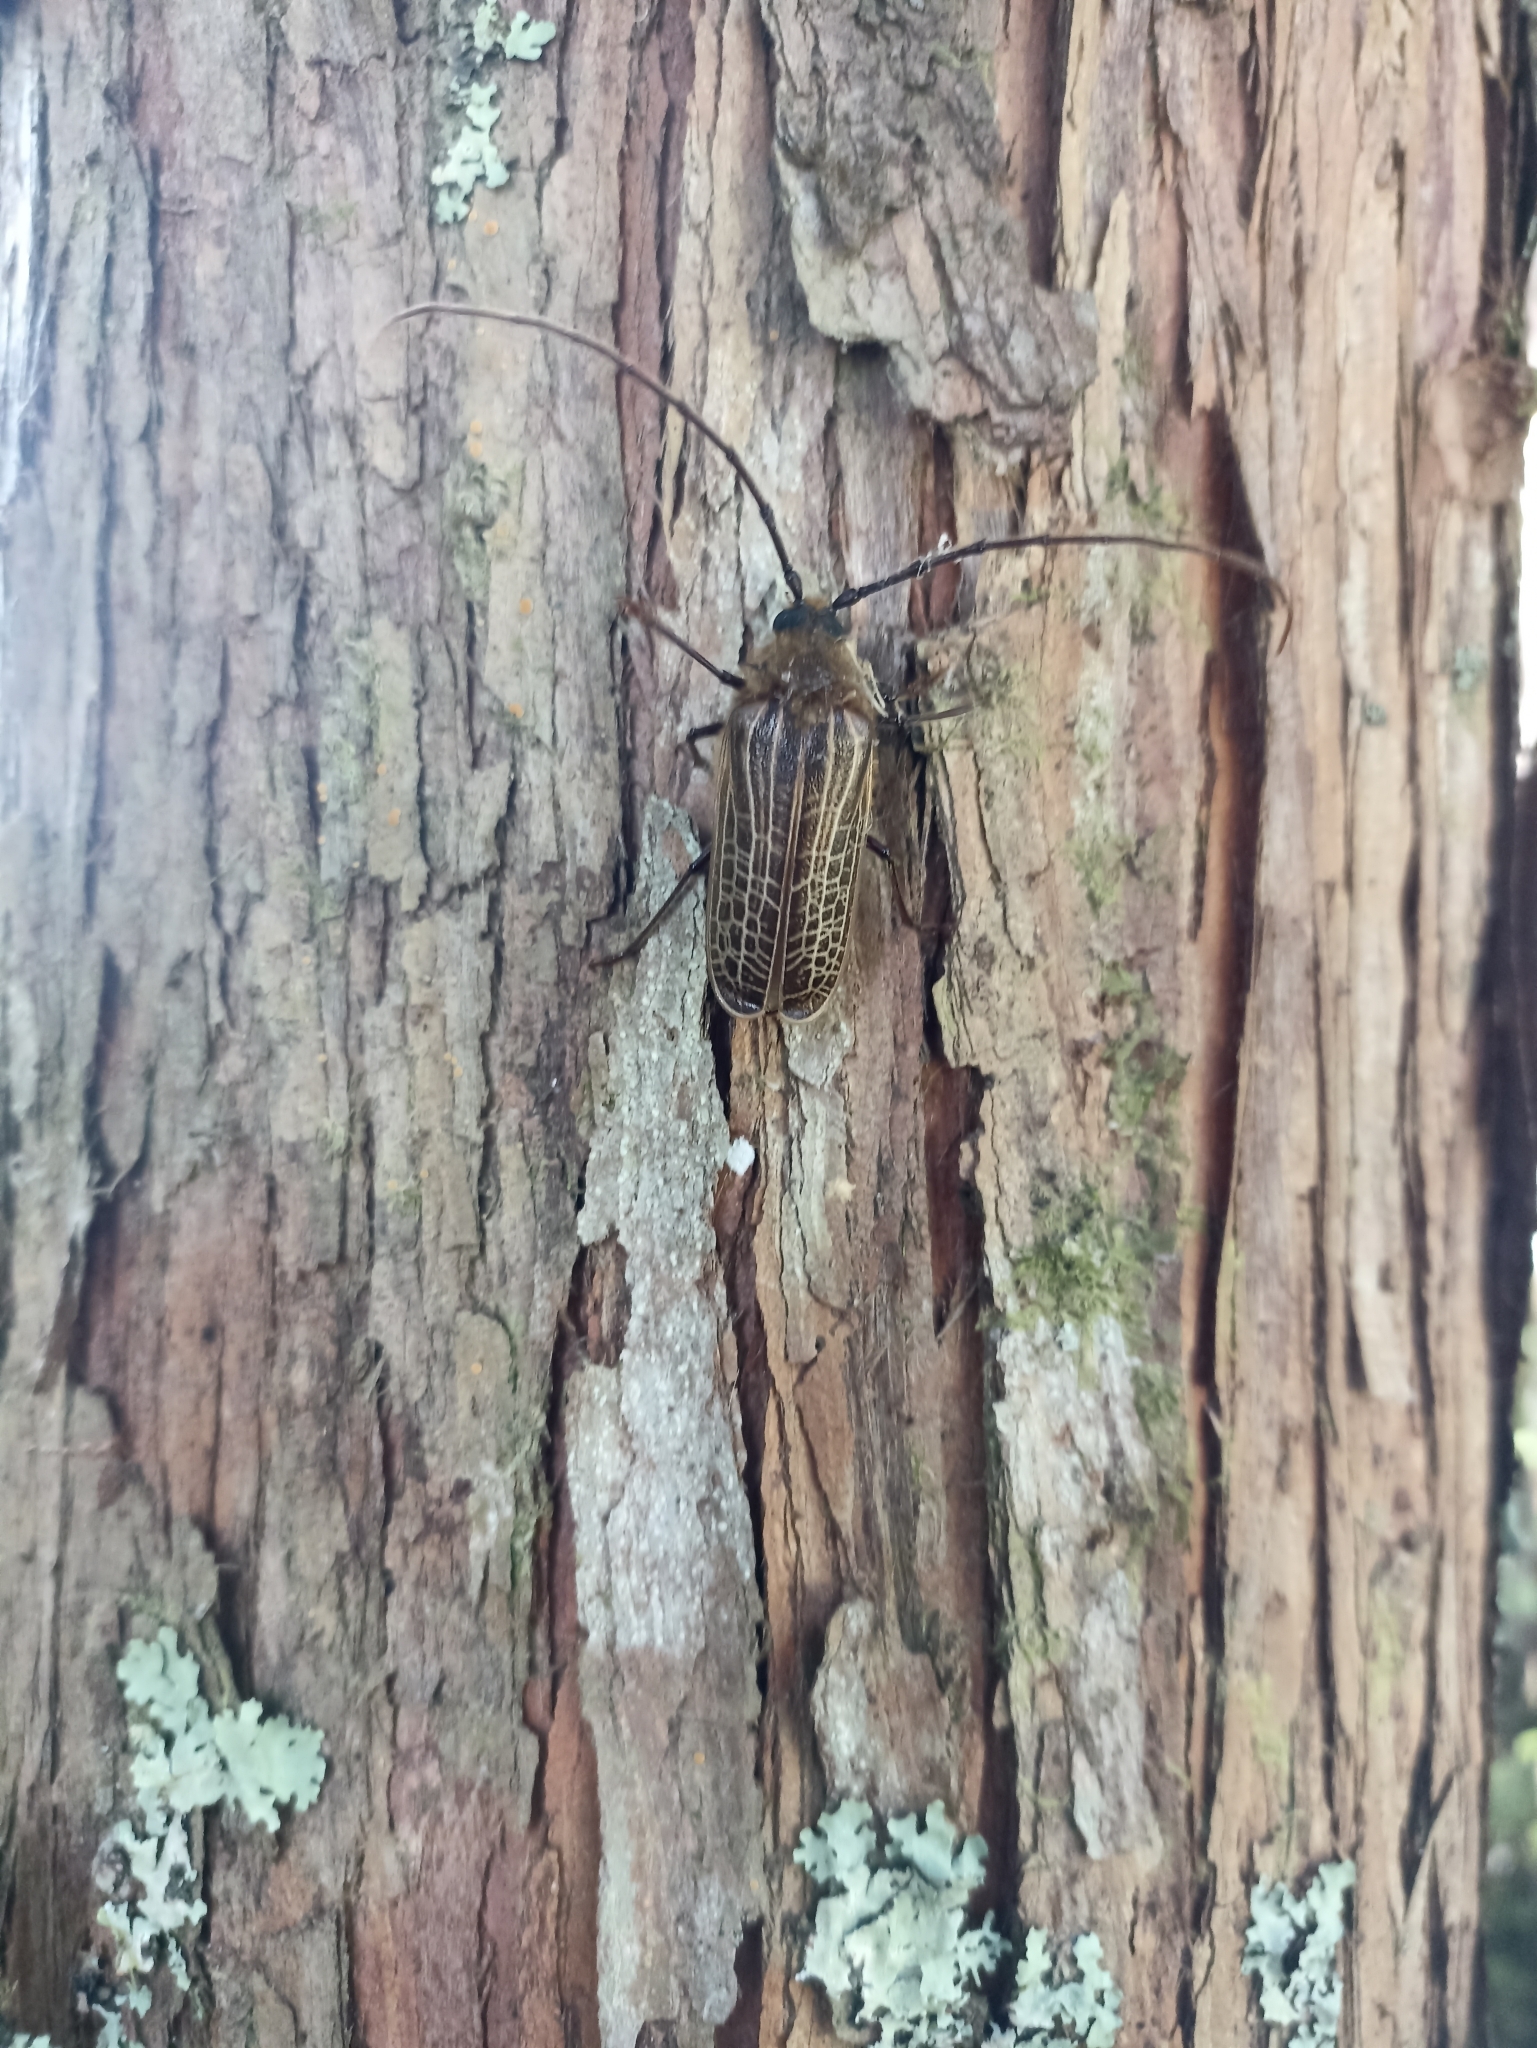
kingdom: Animalia
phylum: Arthropoda
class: Insecta
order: Coleoptera
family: Cerambycidae
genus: Prionoplus
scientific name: Prionoplus reticularis
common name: Huhu beetle
